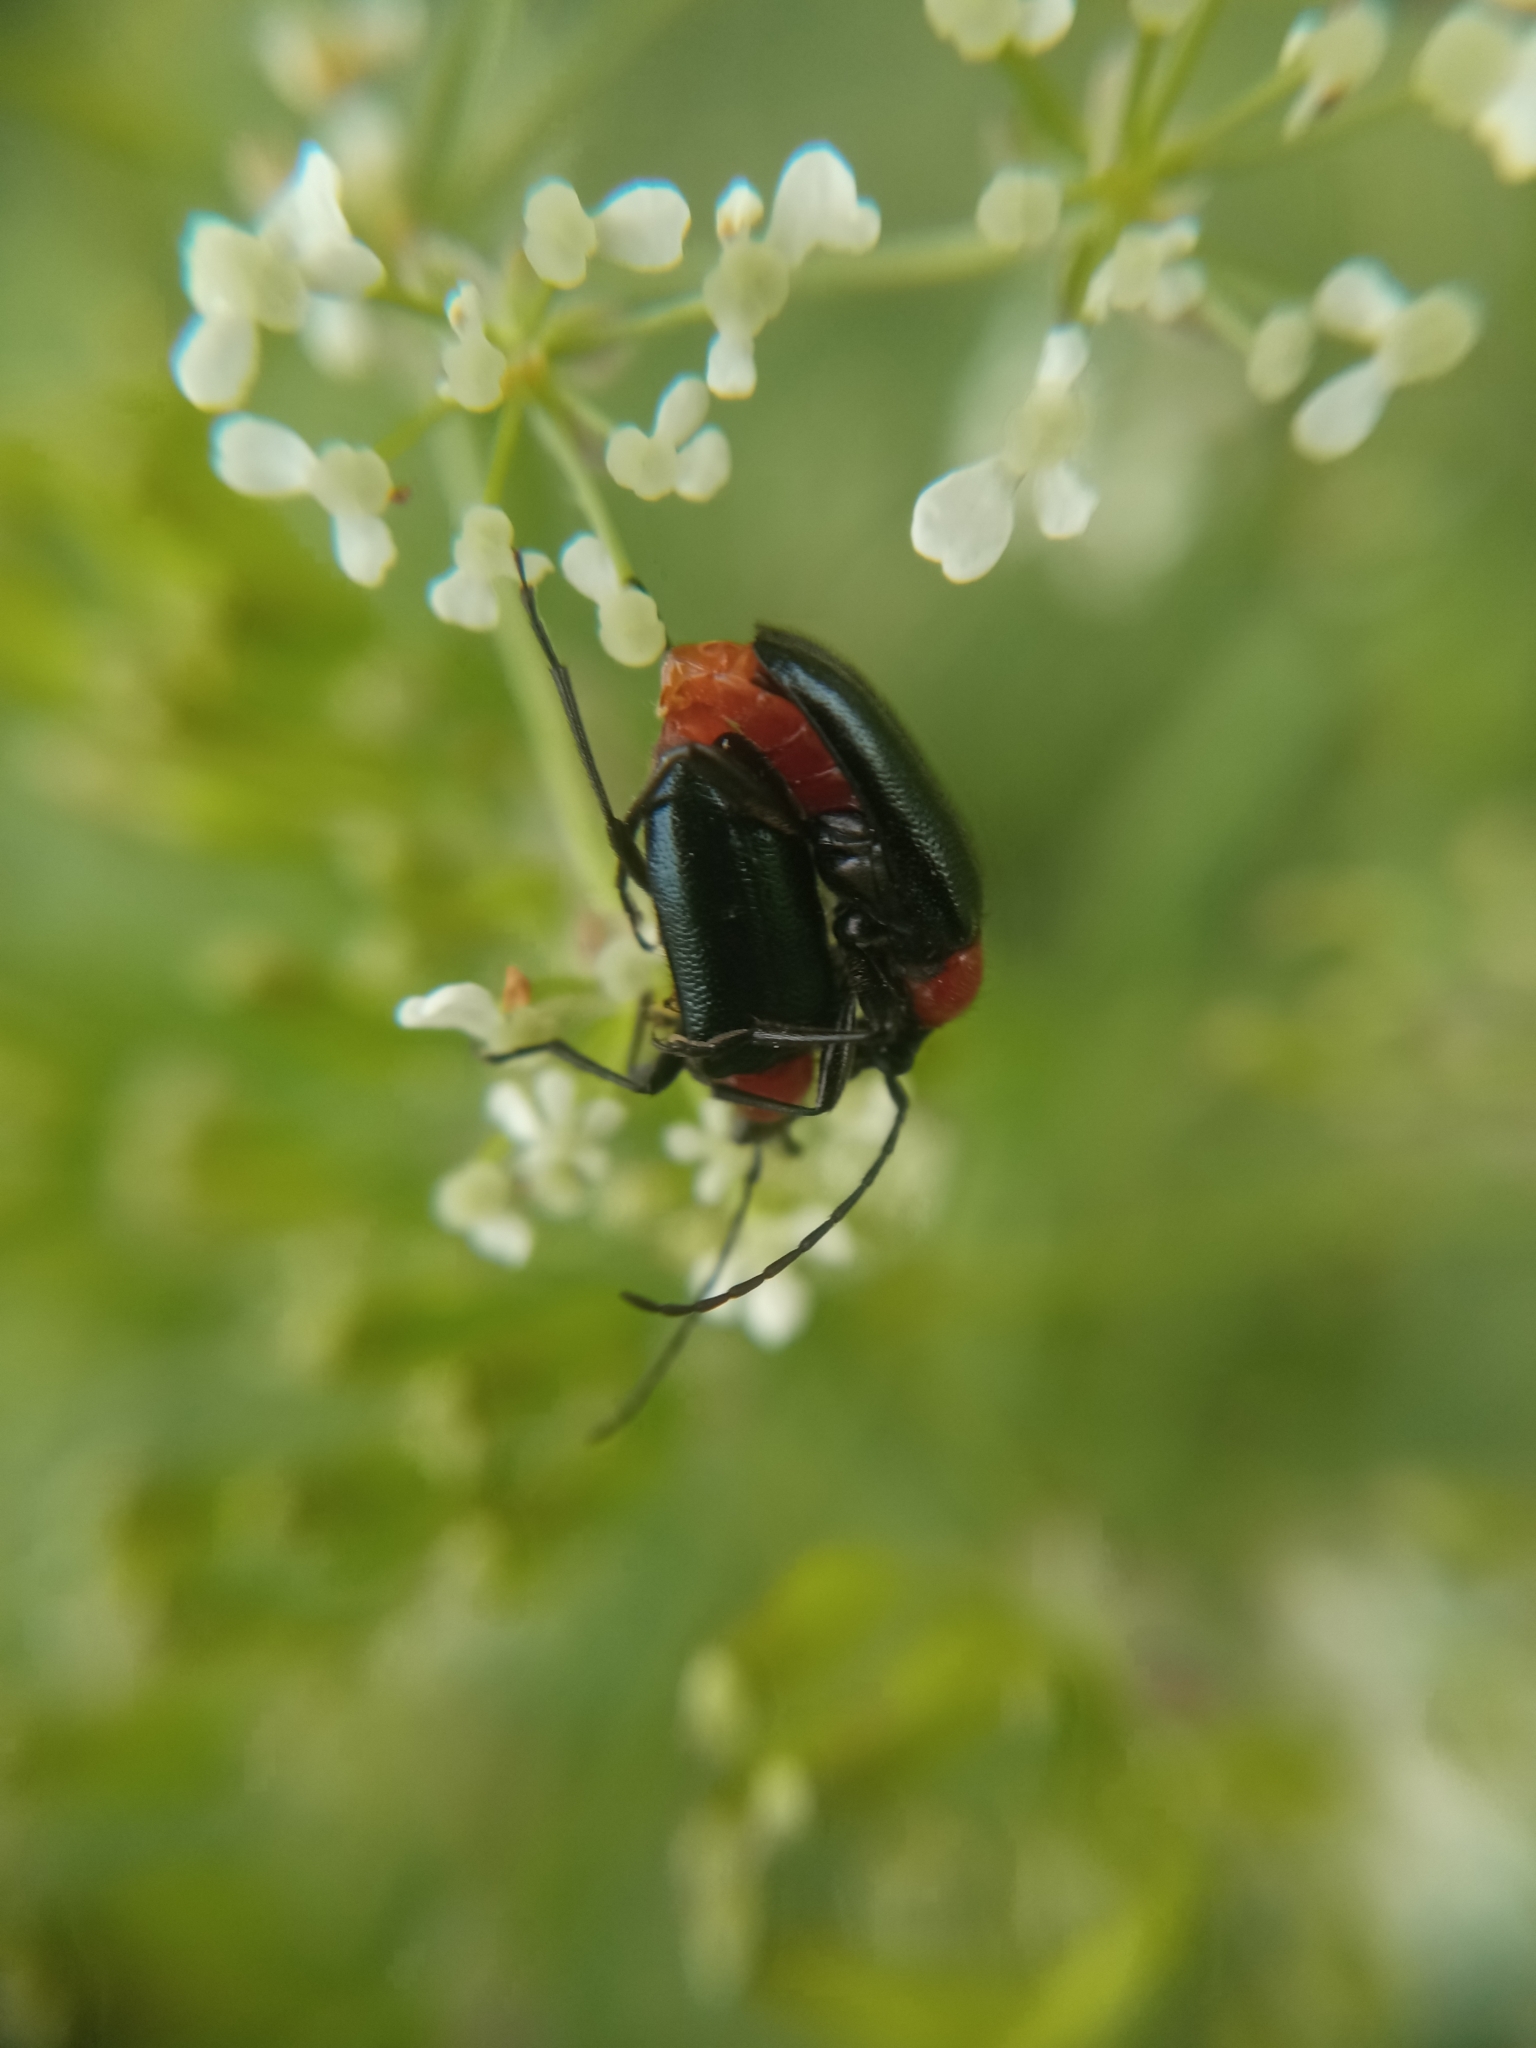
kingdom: Animalia
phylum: Arthropoda
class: Insecta
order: Coleoptera
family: Cerambycidae
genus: Dinoptera
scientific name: Dinoptera collaris
